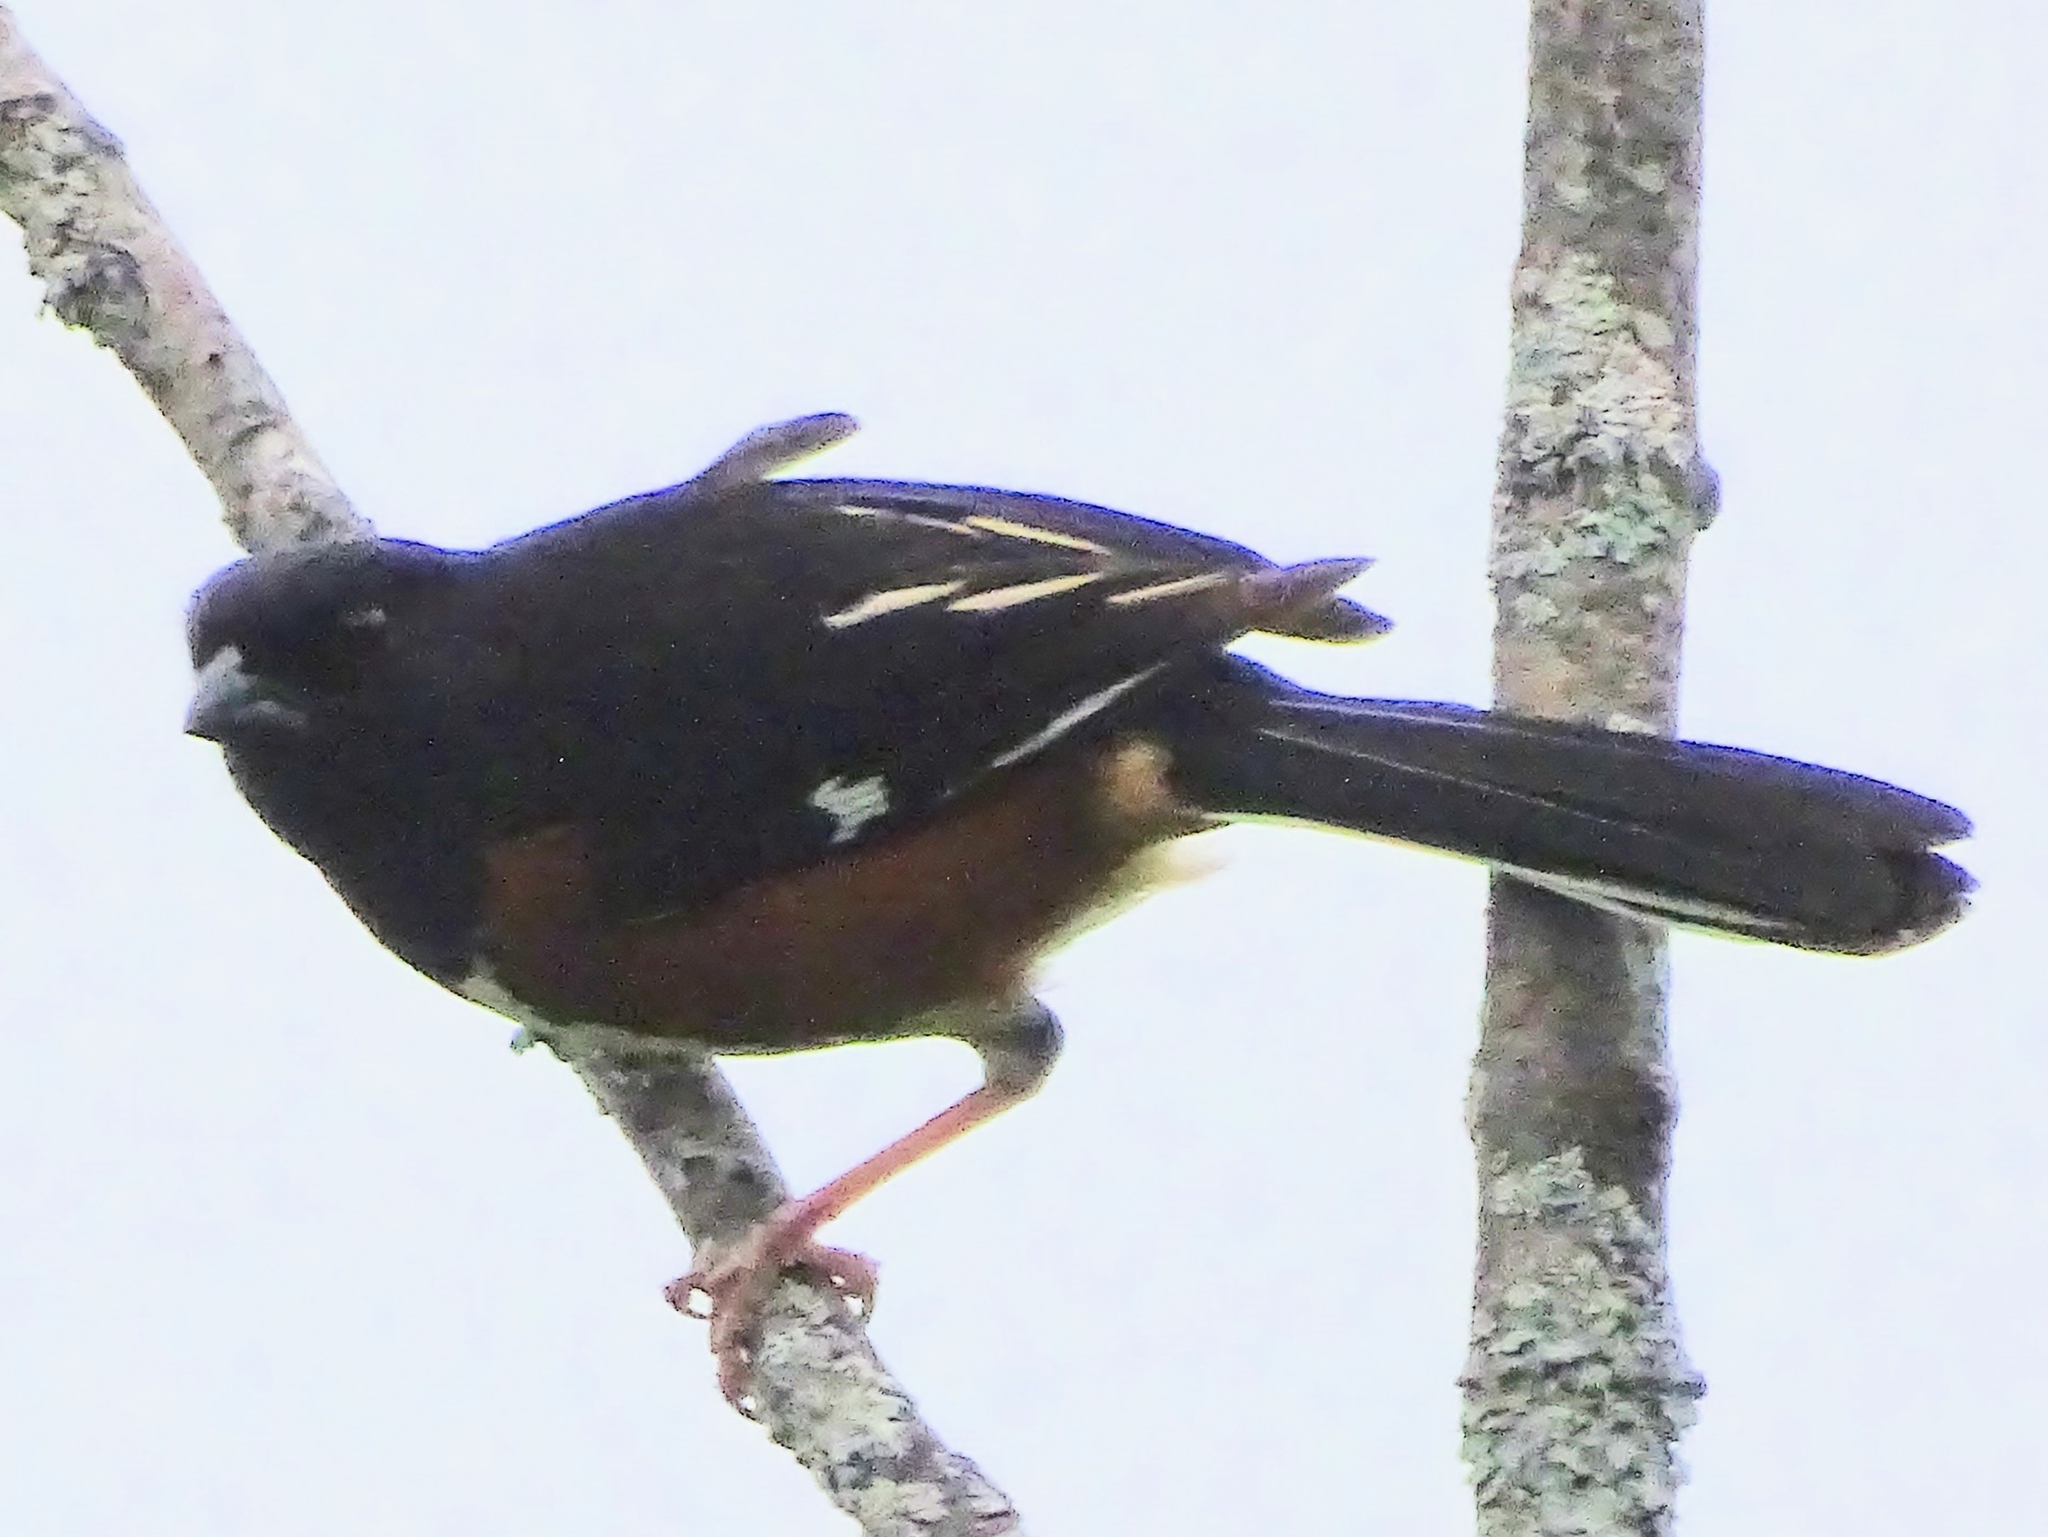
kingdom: Animalia
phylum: Chordata
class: Aves
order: Passeriformes
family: Passerellidae
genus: Pipilo
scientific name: Pipilo erythrophthalmus
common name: Eastern towhee
